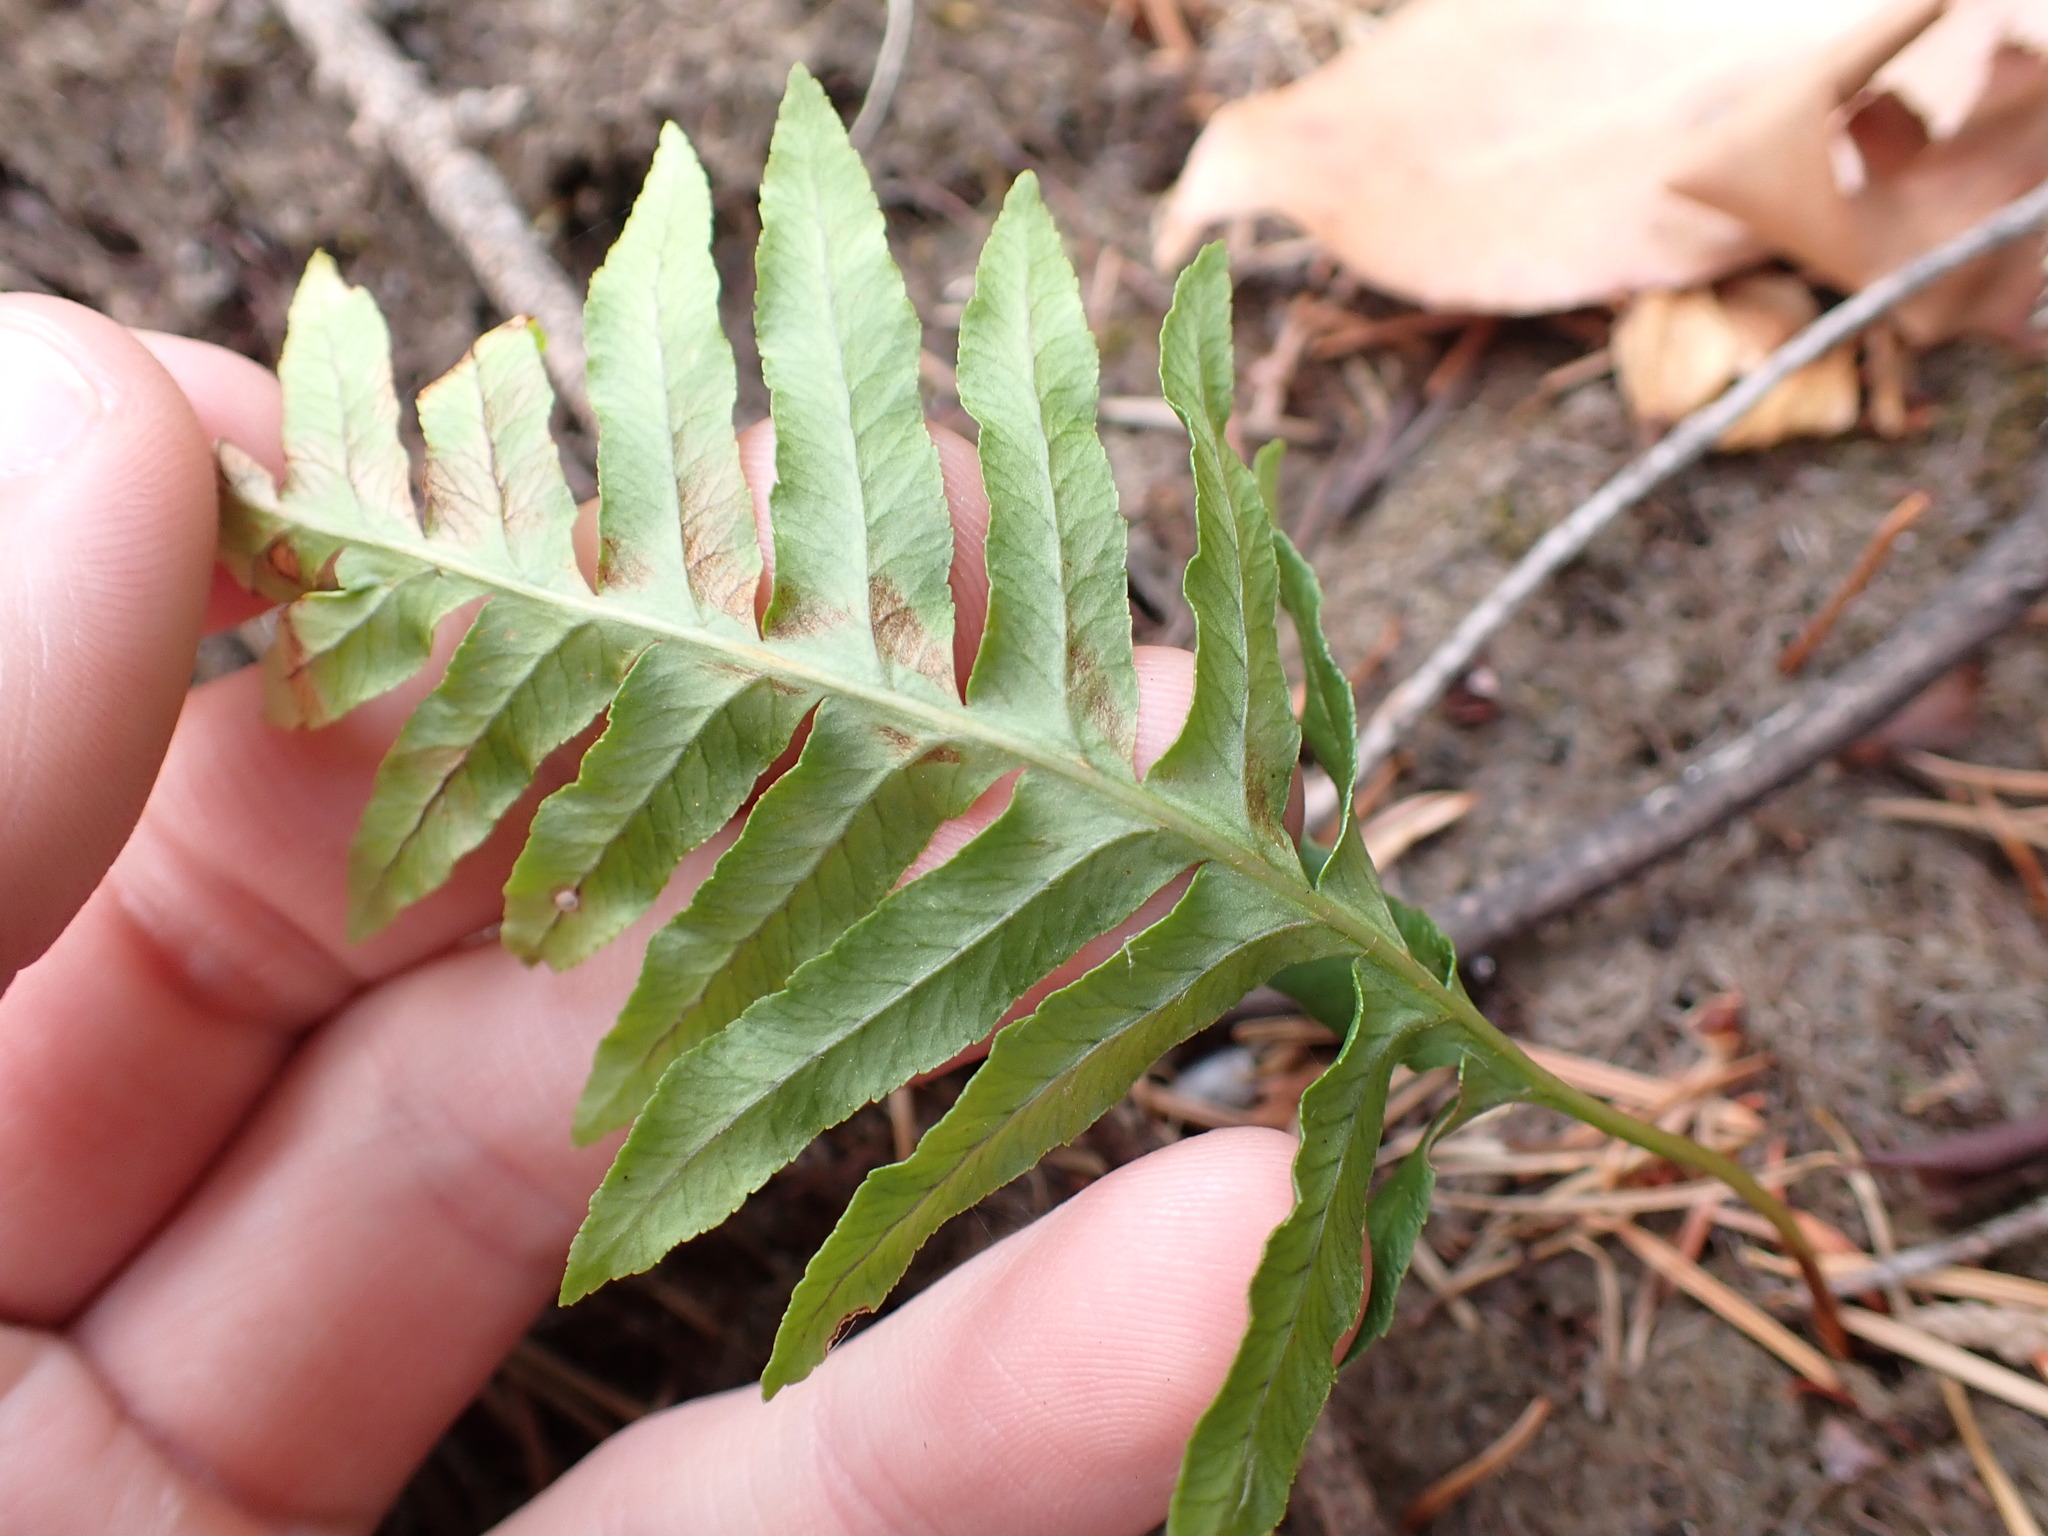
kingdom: Plantae
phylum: Tracheophyta
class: Polypodiopsida
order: Polypodiales
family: Polypodiaceae
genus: Polypodium
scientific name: Polypodium glycyrrhiza
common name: Licorice fern
